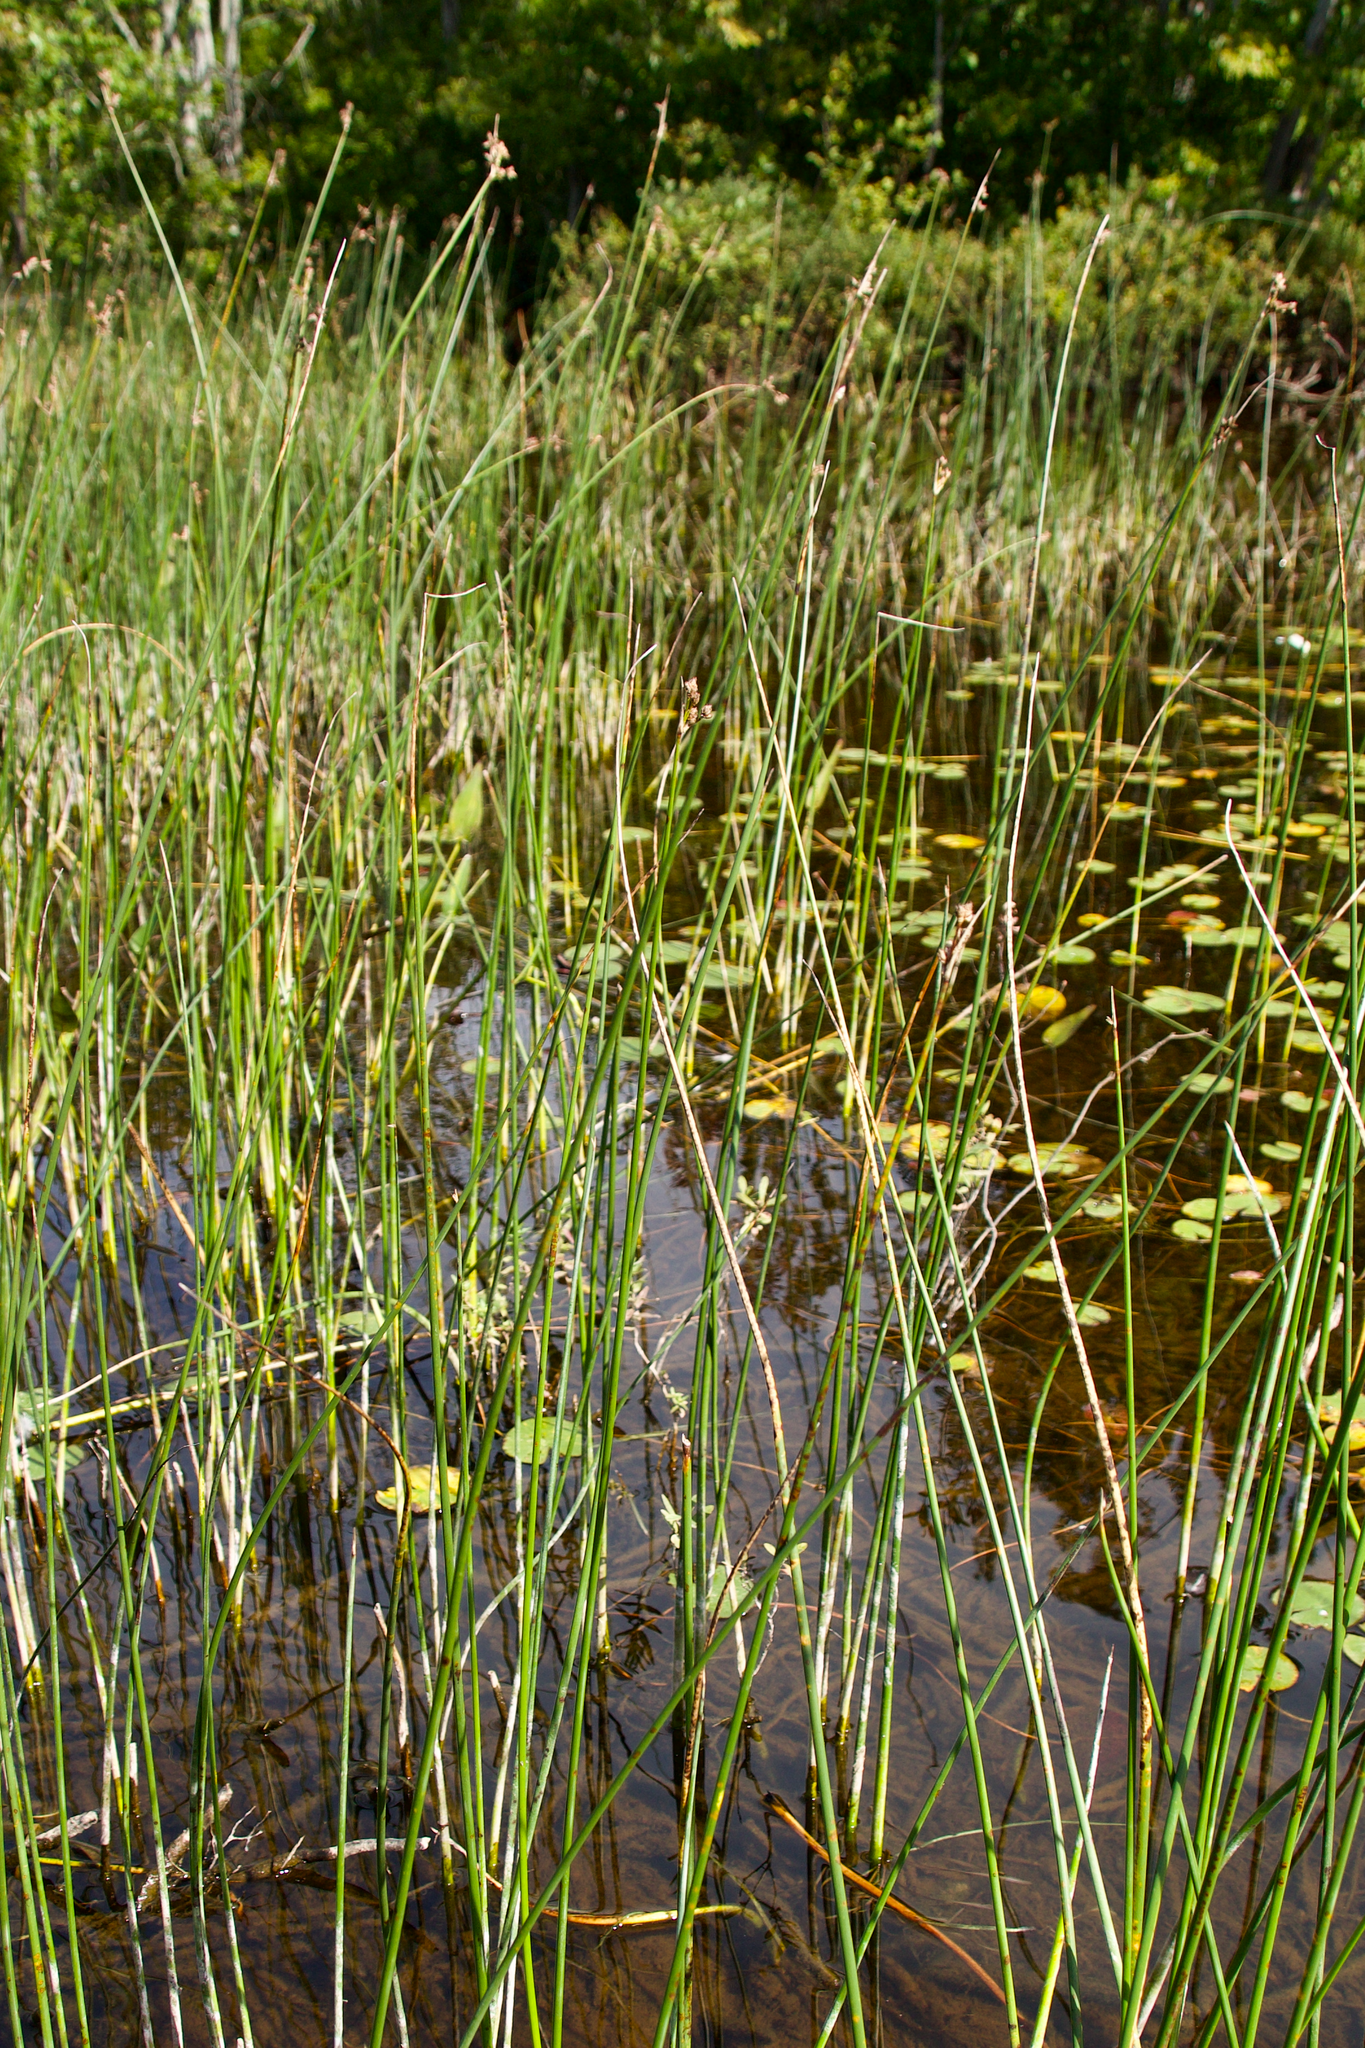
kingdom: Plantae
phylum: Tracheophyta
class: Liliopsida
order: Poales
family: Cyperaceae
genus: Schoenoplectus
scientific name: Schoenoplectus
